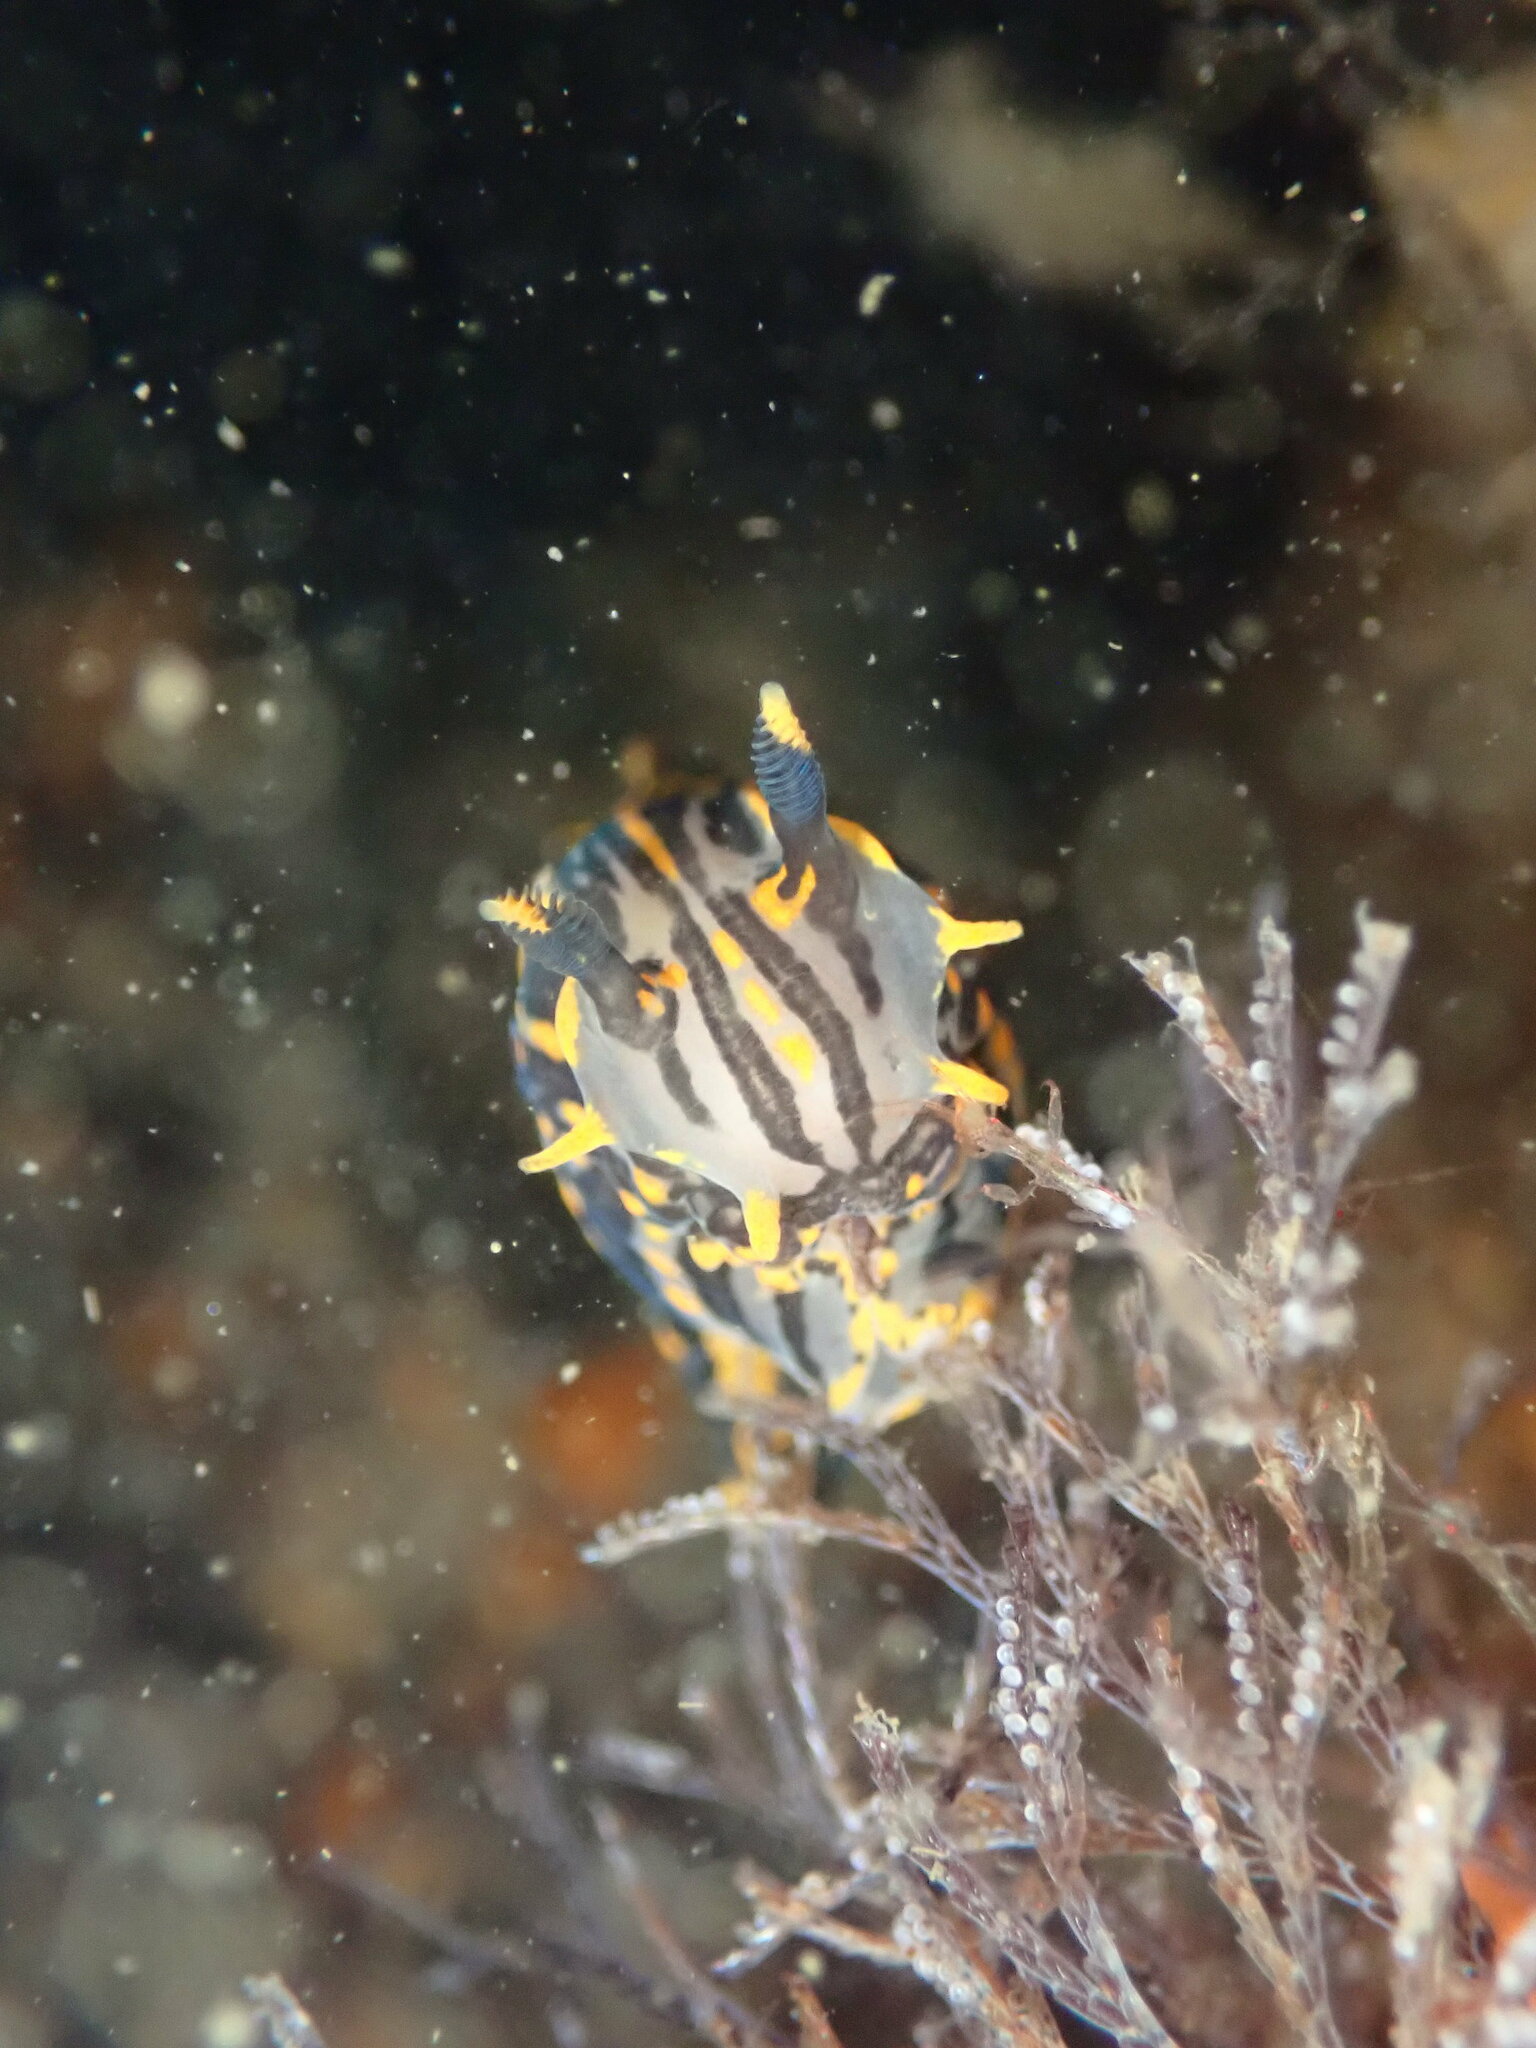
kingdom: Animalia
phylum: Mollusca
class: Gastropoda
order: Nudibranchia
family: Polyceridae
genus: Polycera
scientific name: Polycera atra
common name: Orange-spike polycera
